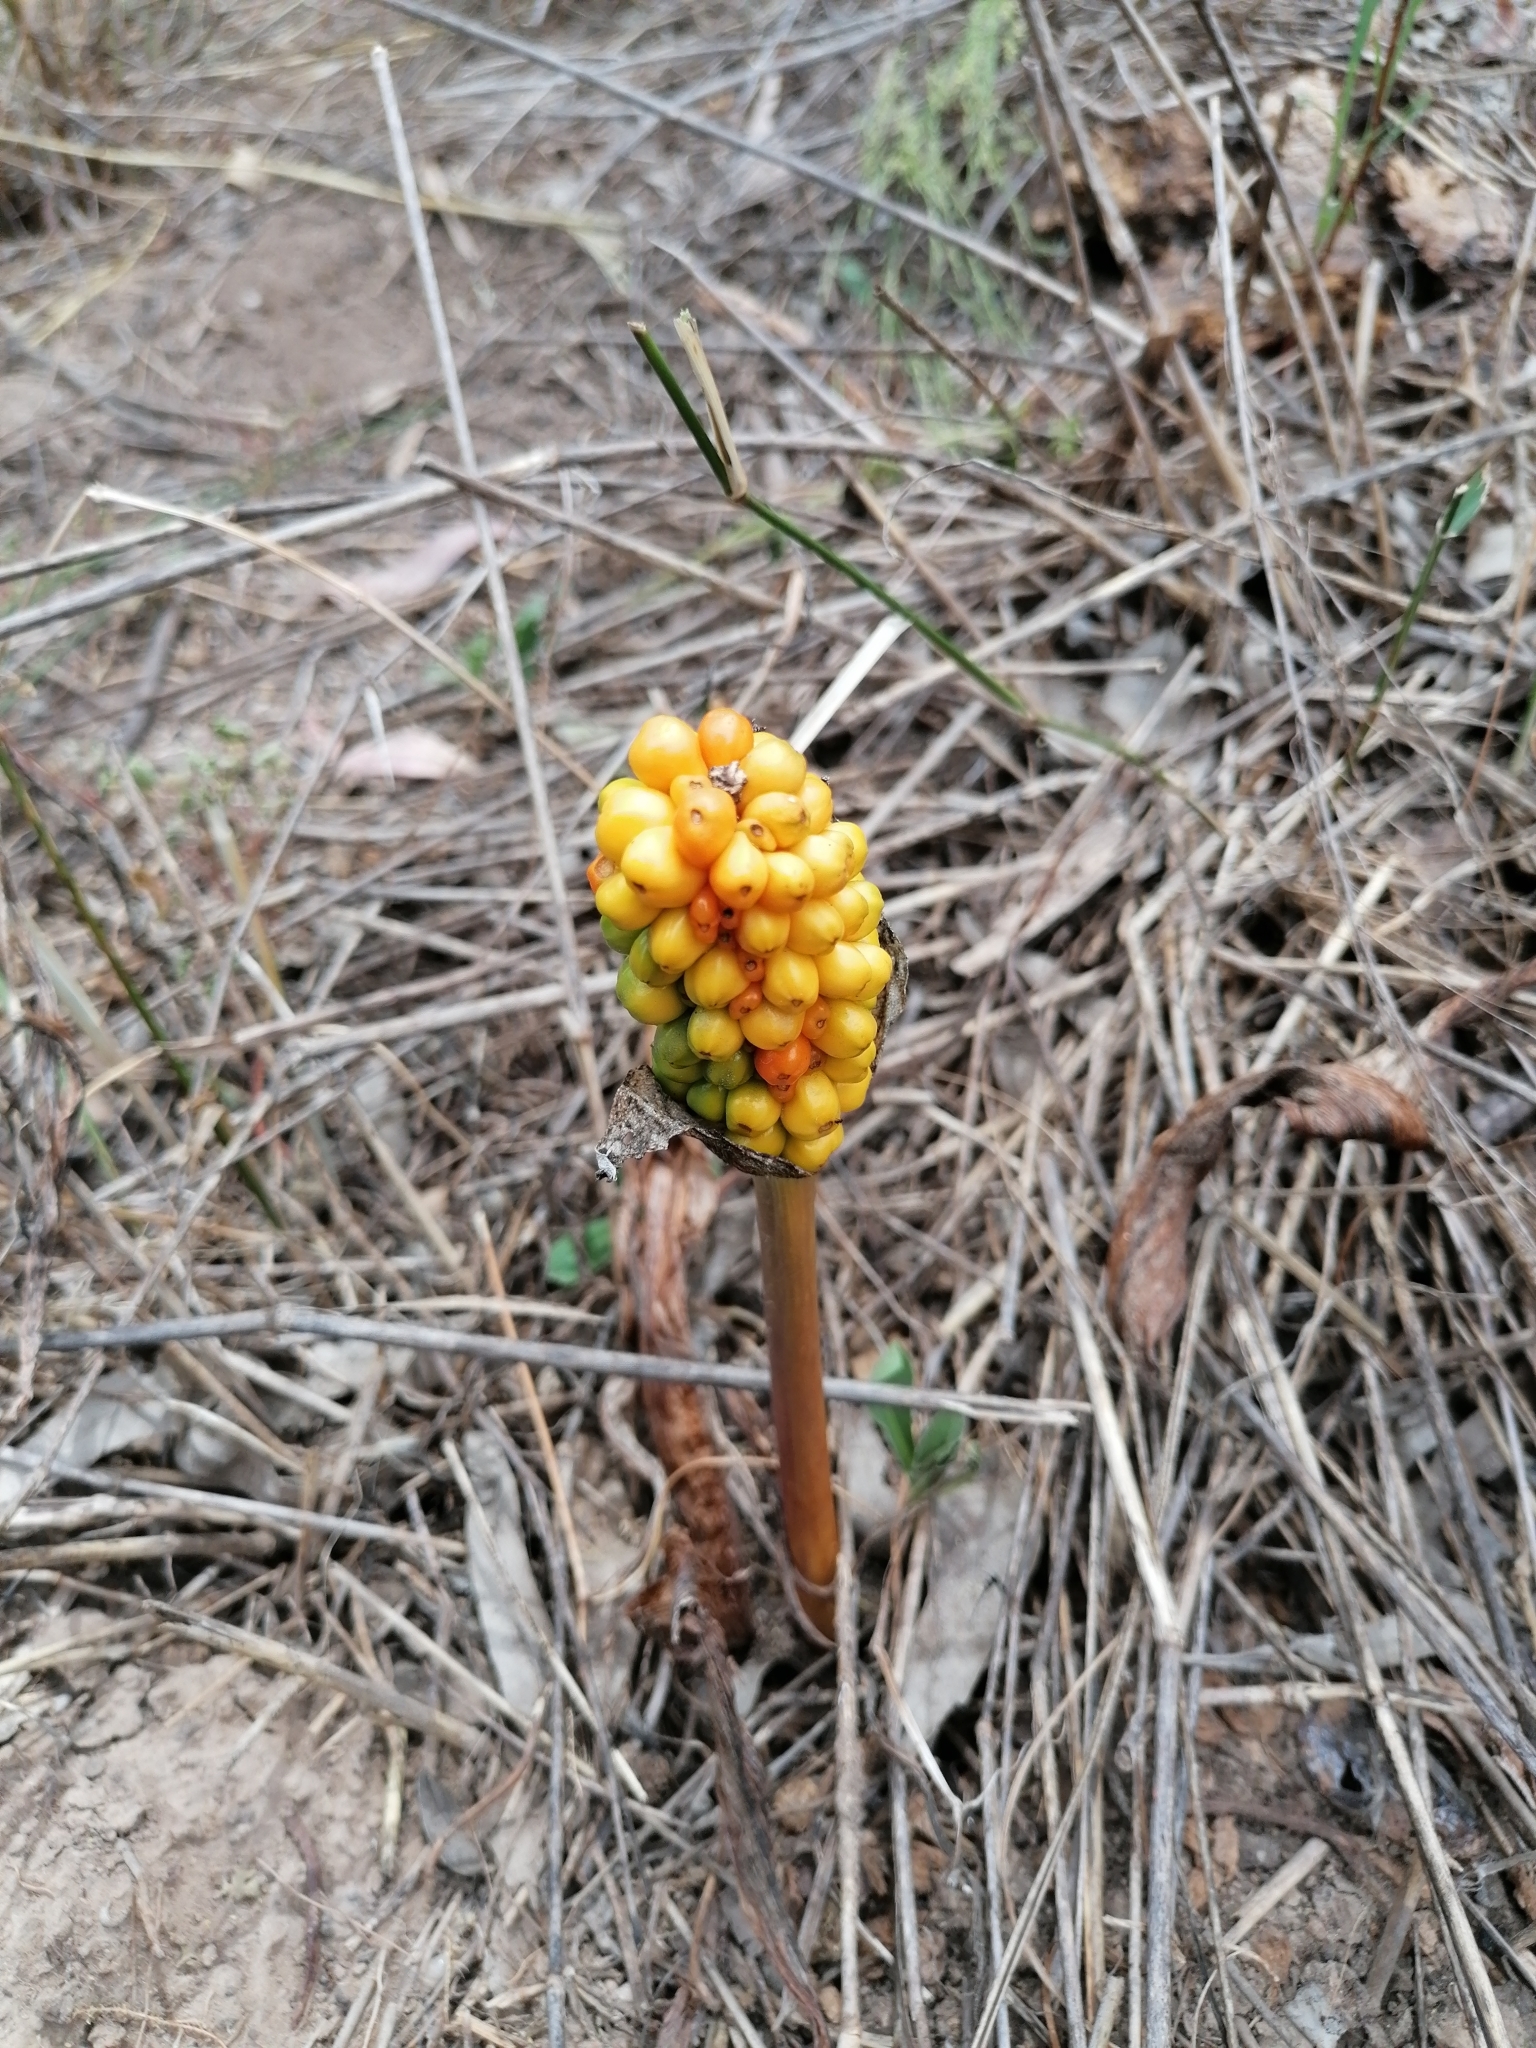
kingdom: Plantae
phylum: Tracheophyta
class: Liliopsida
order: Alismatales
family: Araceae
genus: Arum
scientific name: Arum italicum
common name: Italian lords-and-ladies
